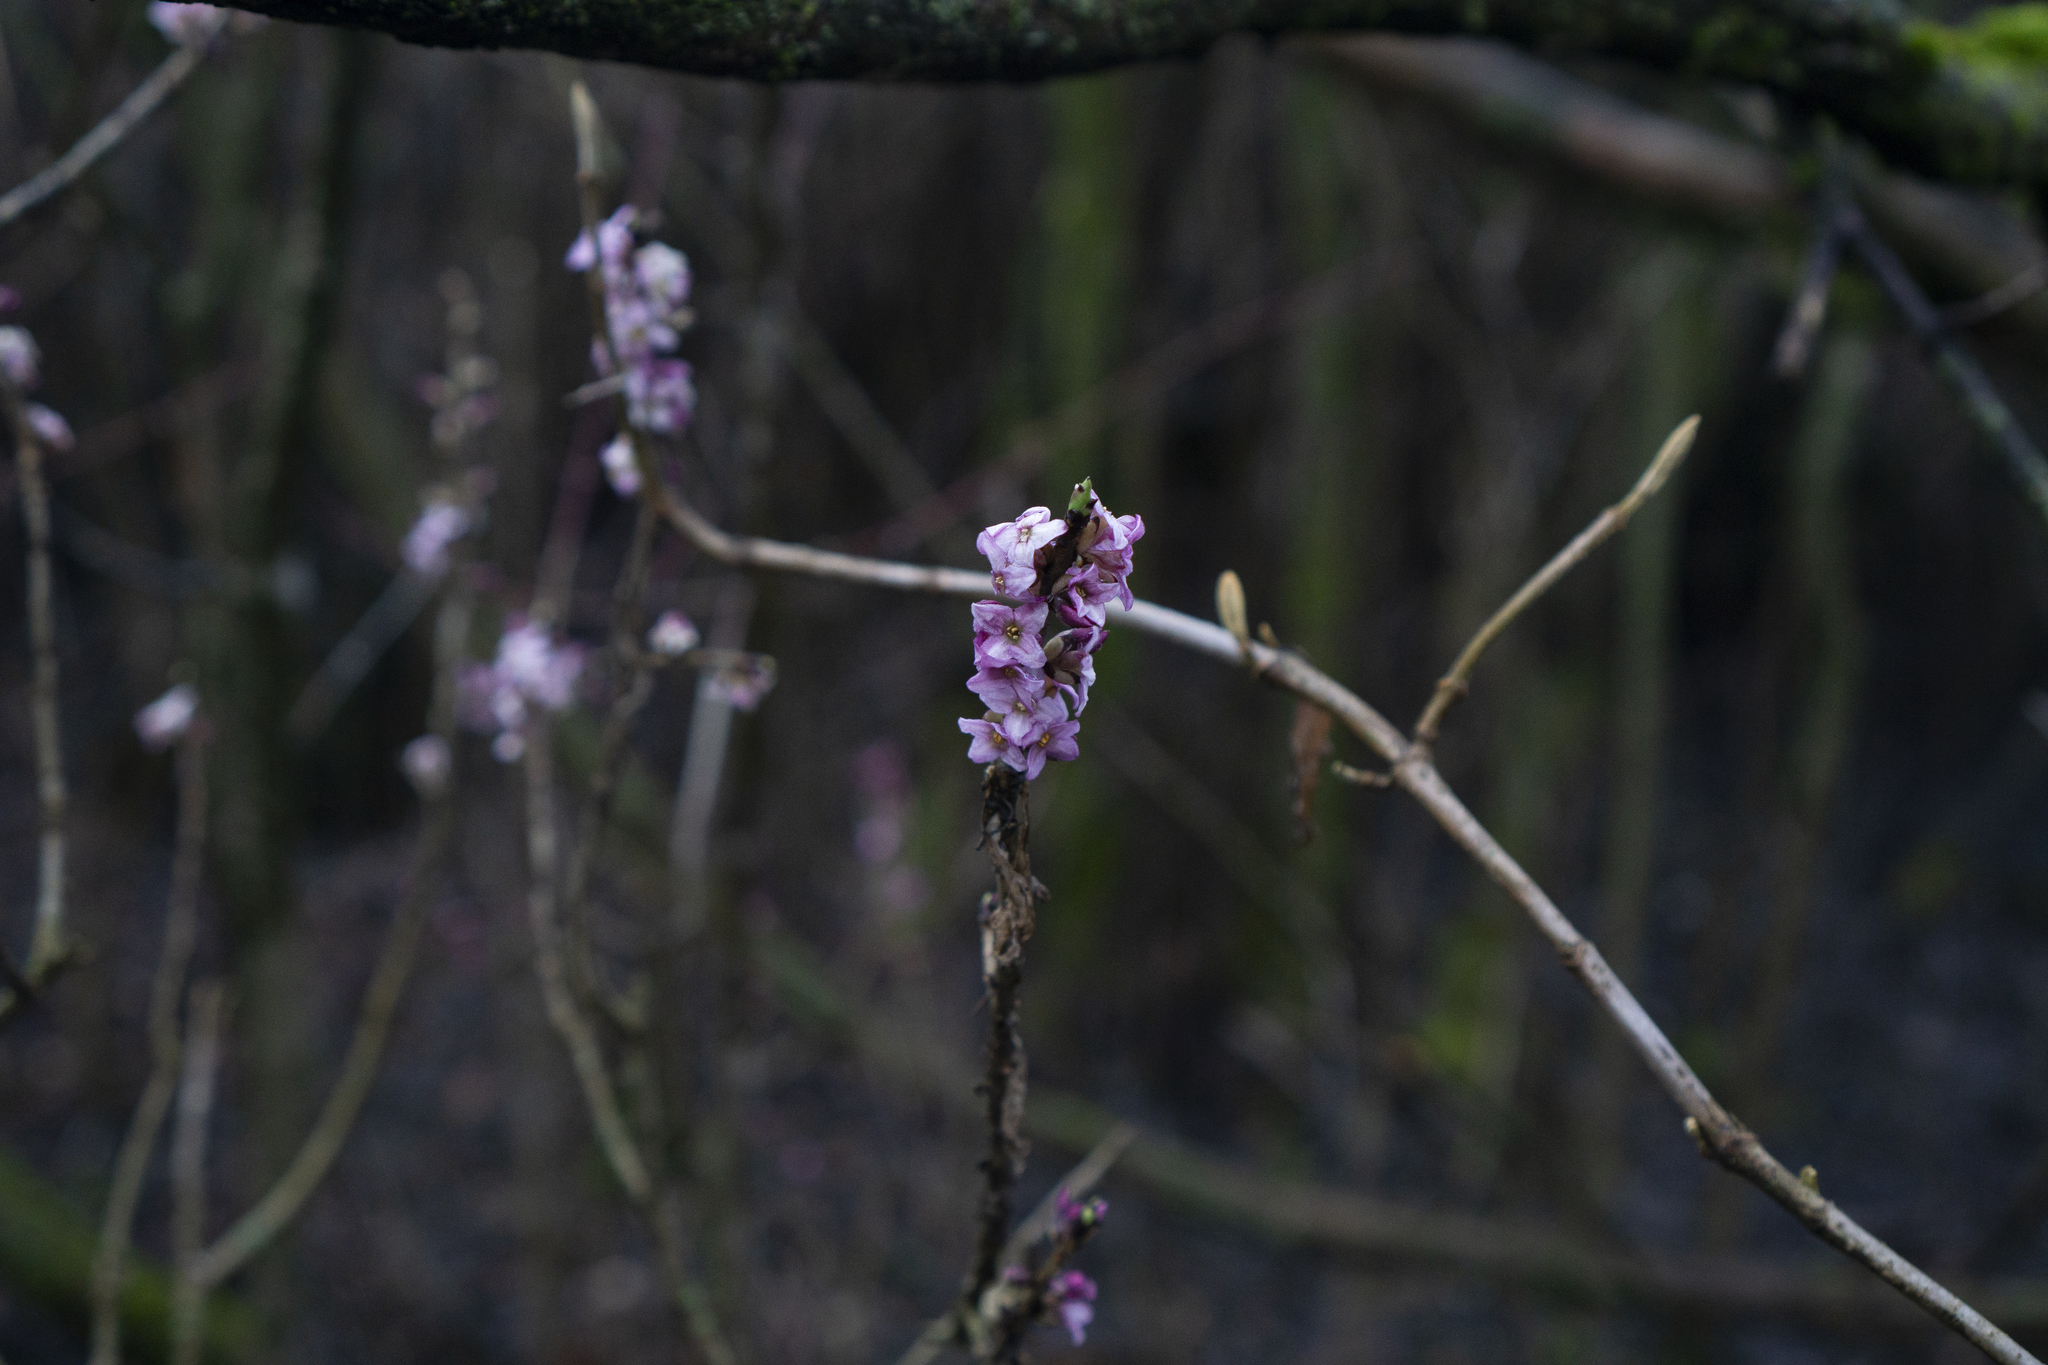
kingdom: Plantae
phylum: Tracheophyta
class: Magnoliopsida
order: Malvales
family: Thymelaeaceae
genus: Daphne
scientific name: Daphne mezereum
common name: Mezereon
